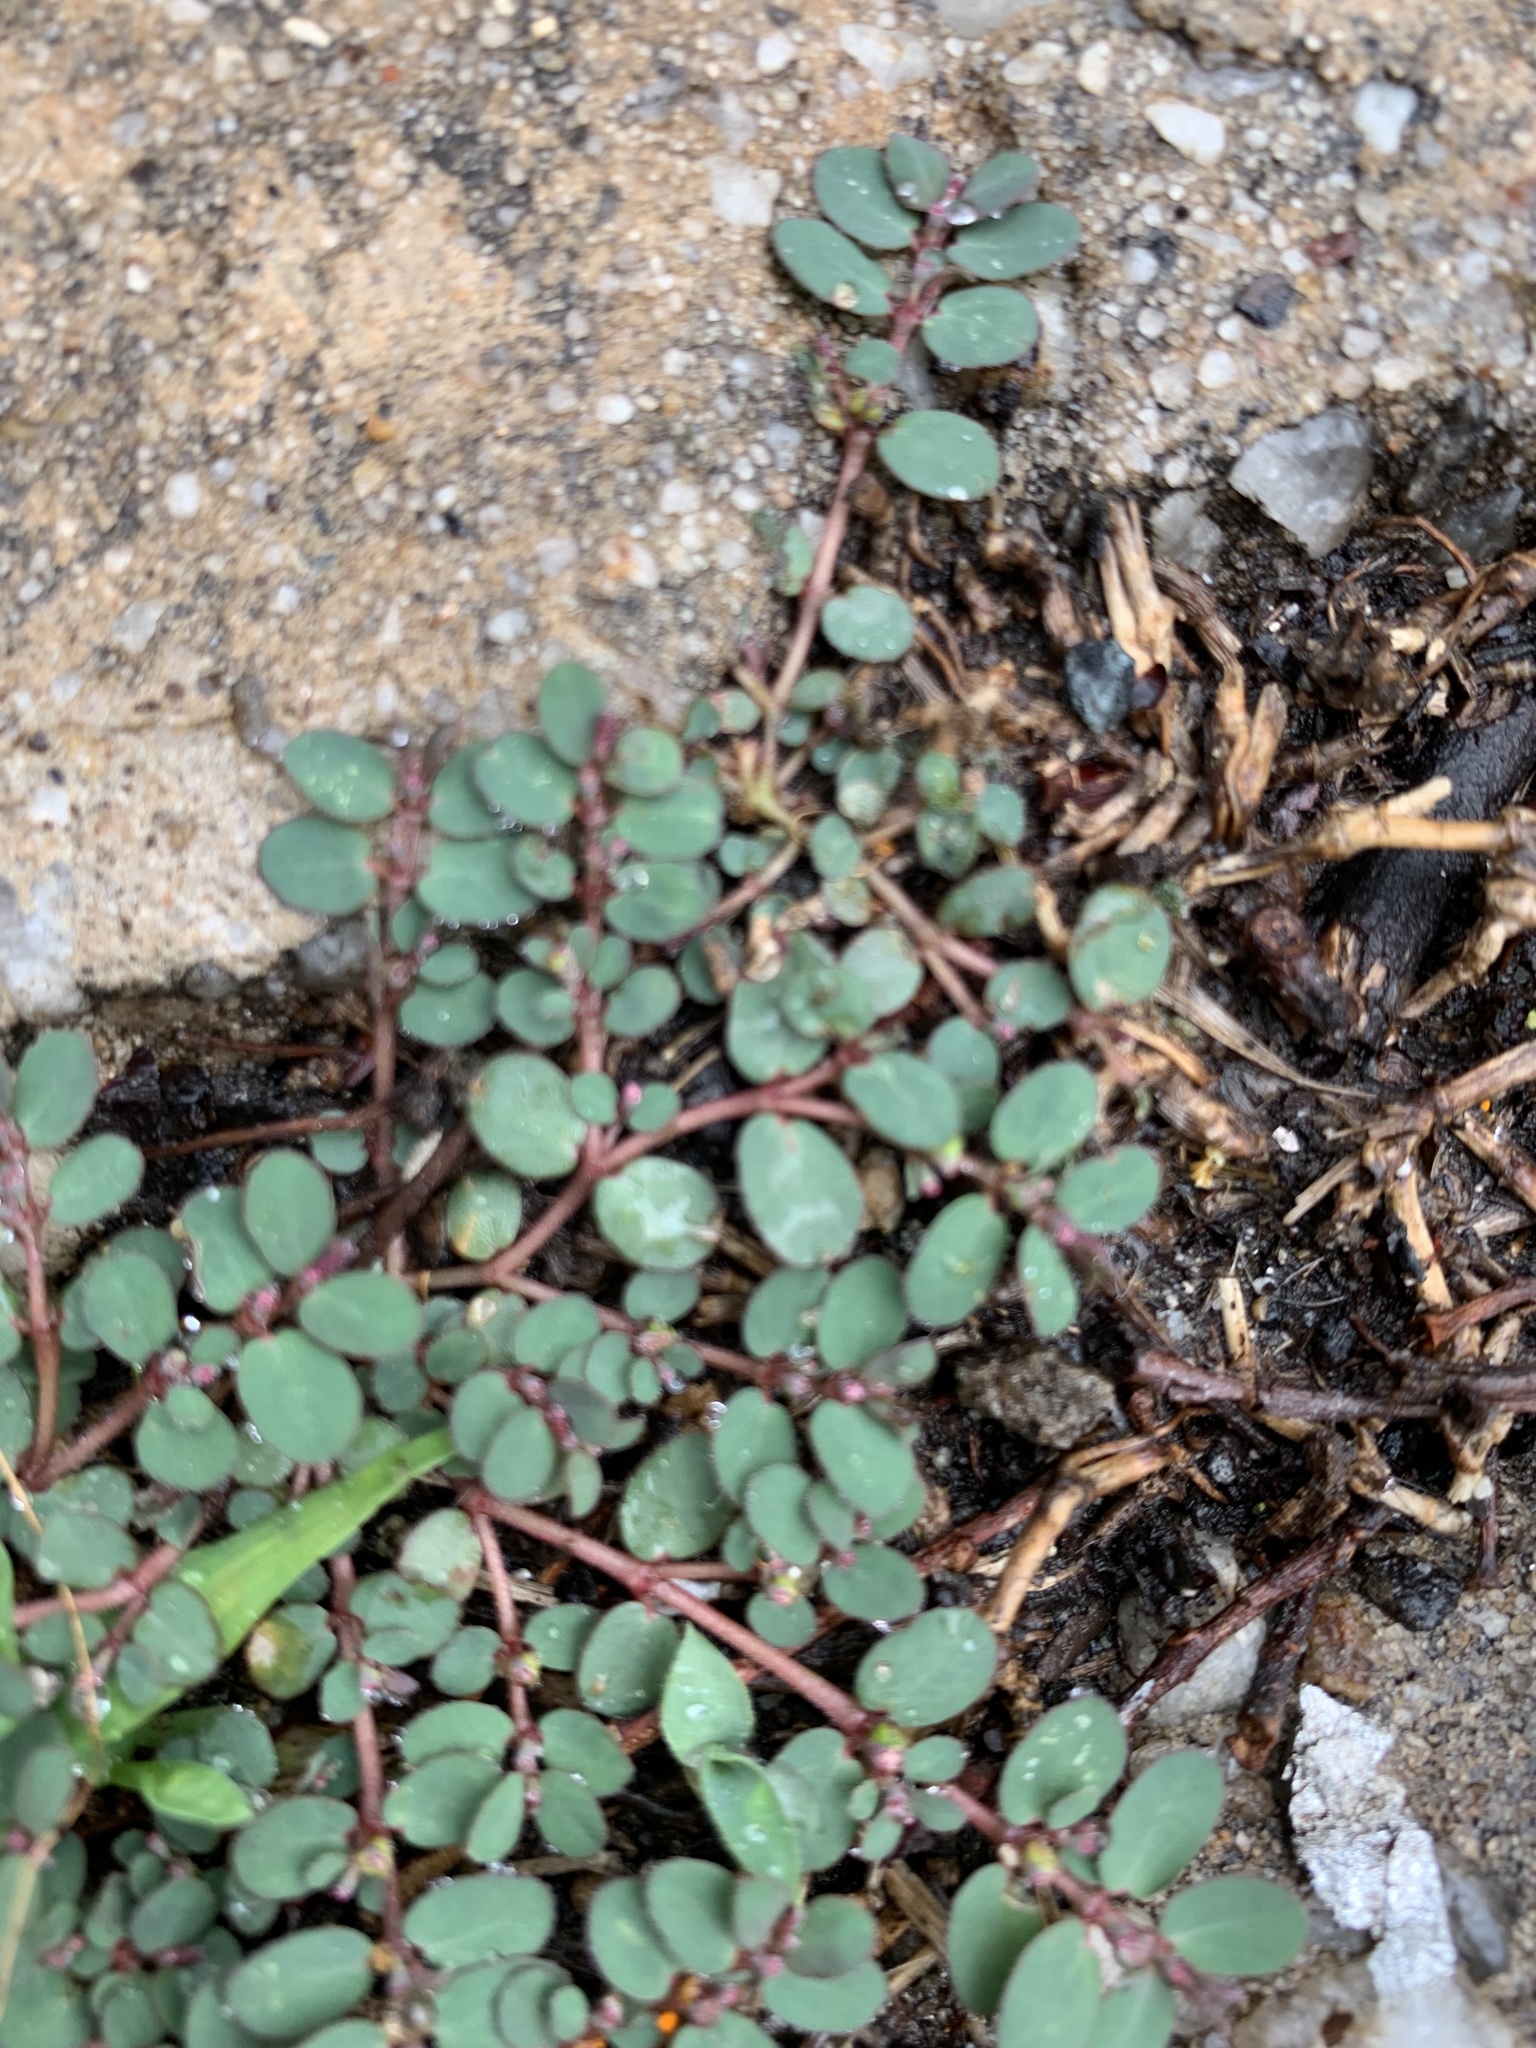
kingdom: Plantae
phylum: Tracheophyta
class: Magnoliopsida
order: Malpighiales
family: Euphorbiaceae
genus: Euphorbia
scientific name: Euphorbia prostrata
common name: Prostrate sandmat
